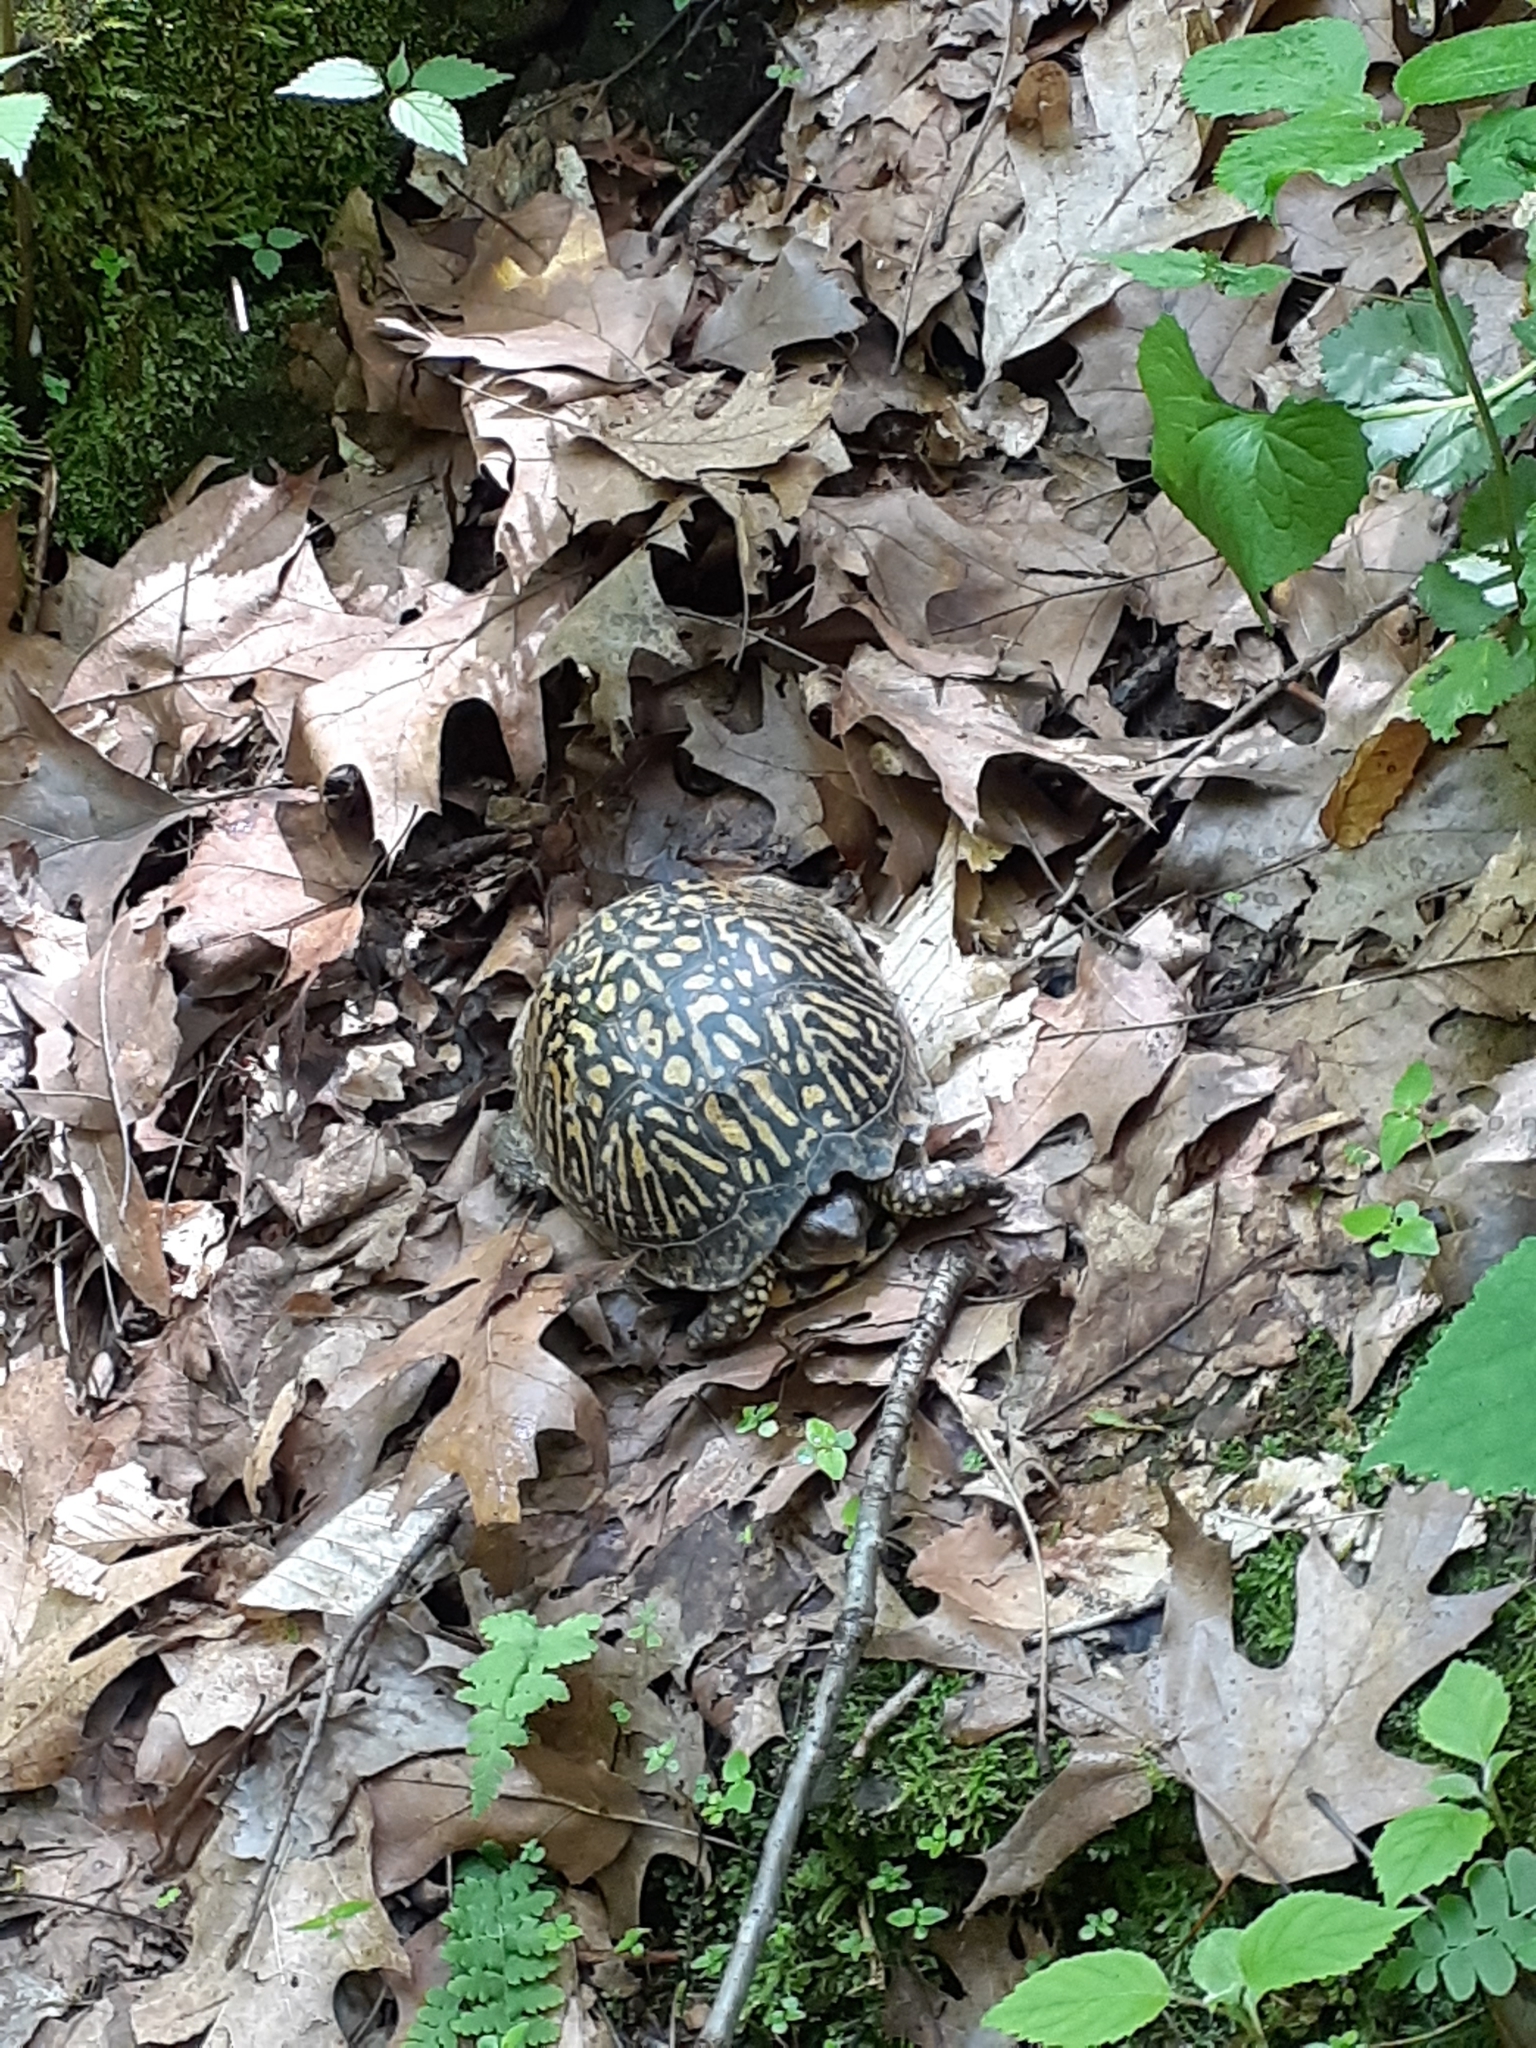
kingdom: Animalia
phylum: Chordata
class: Testudines
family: Emydidae
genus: Terrapene
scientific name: Terrapene carolina
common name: Common box turtle
